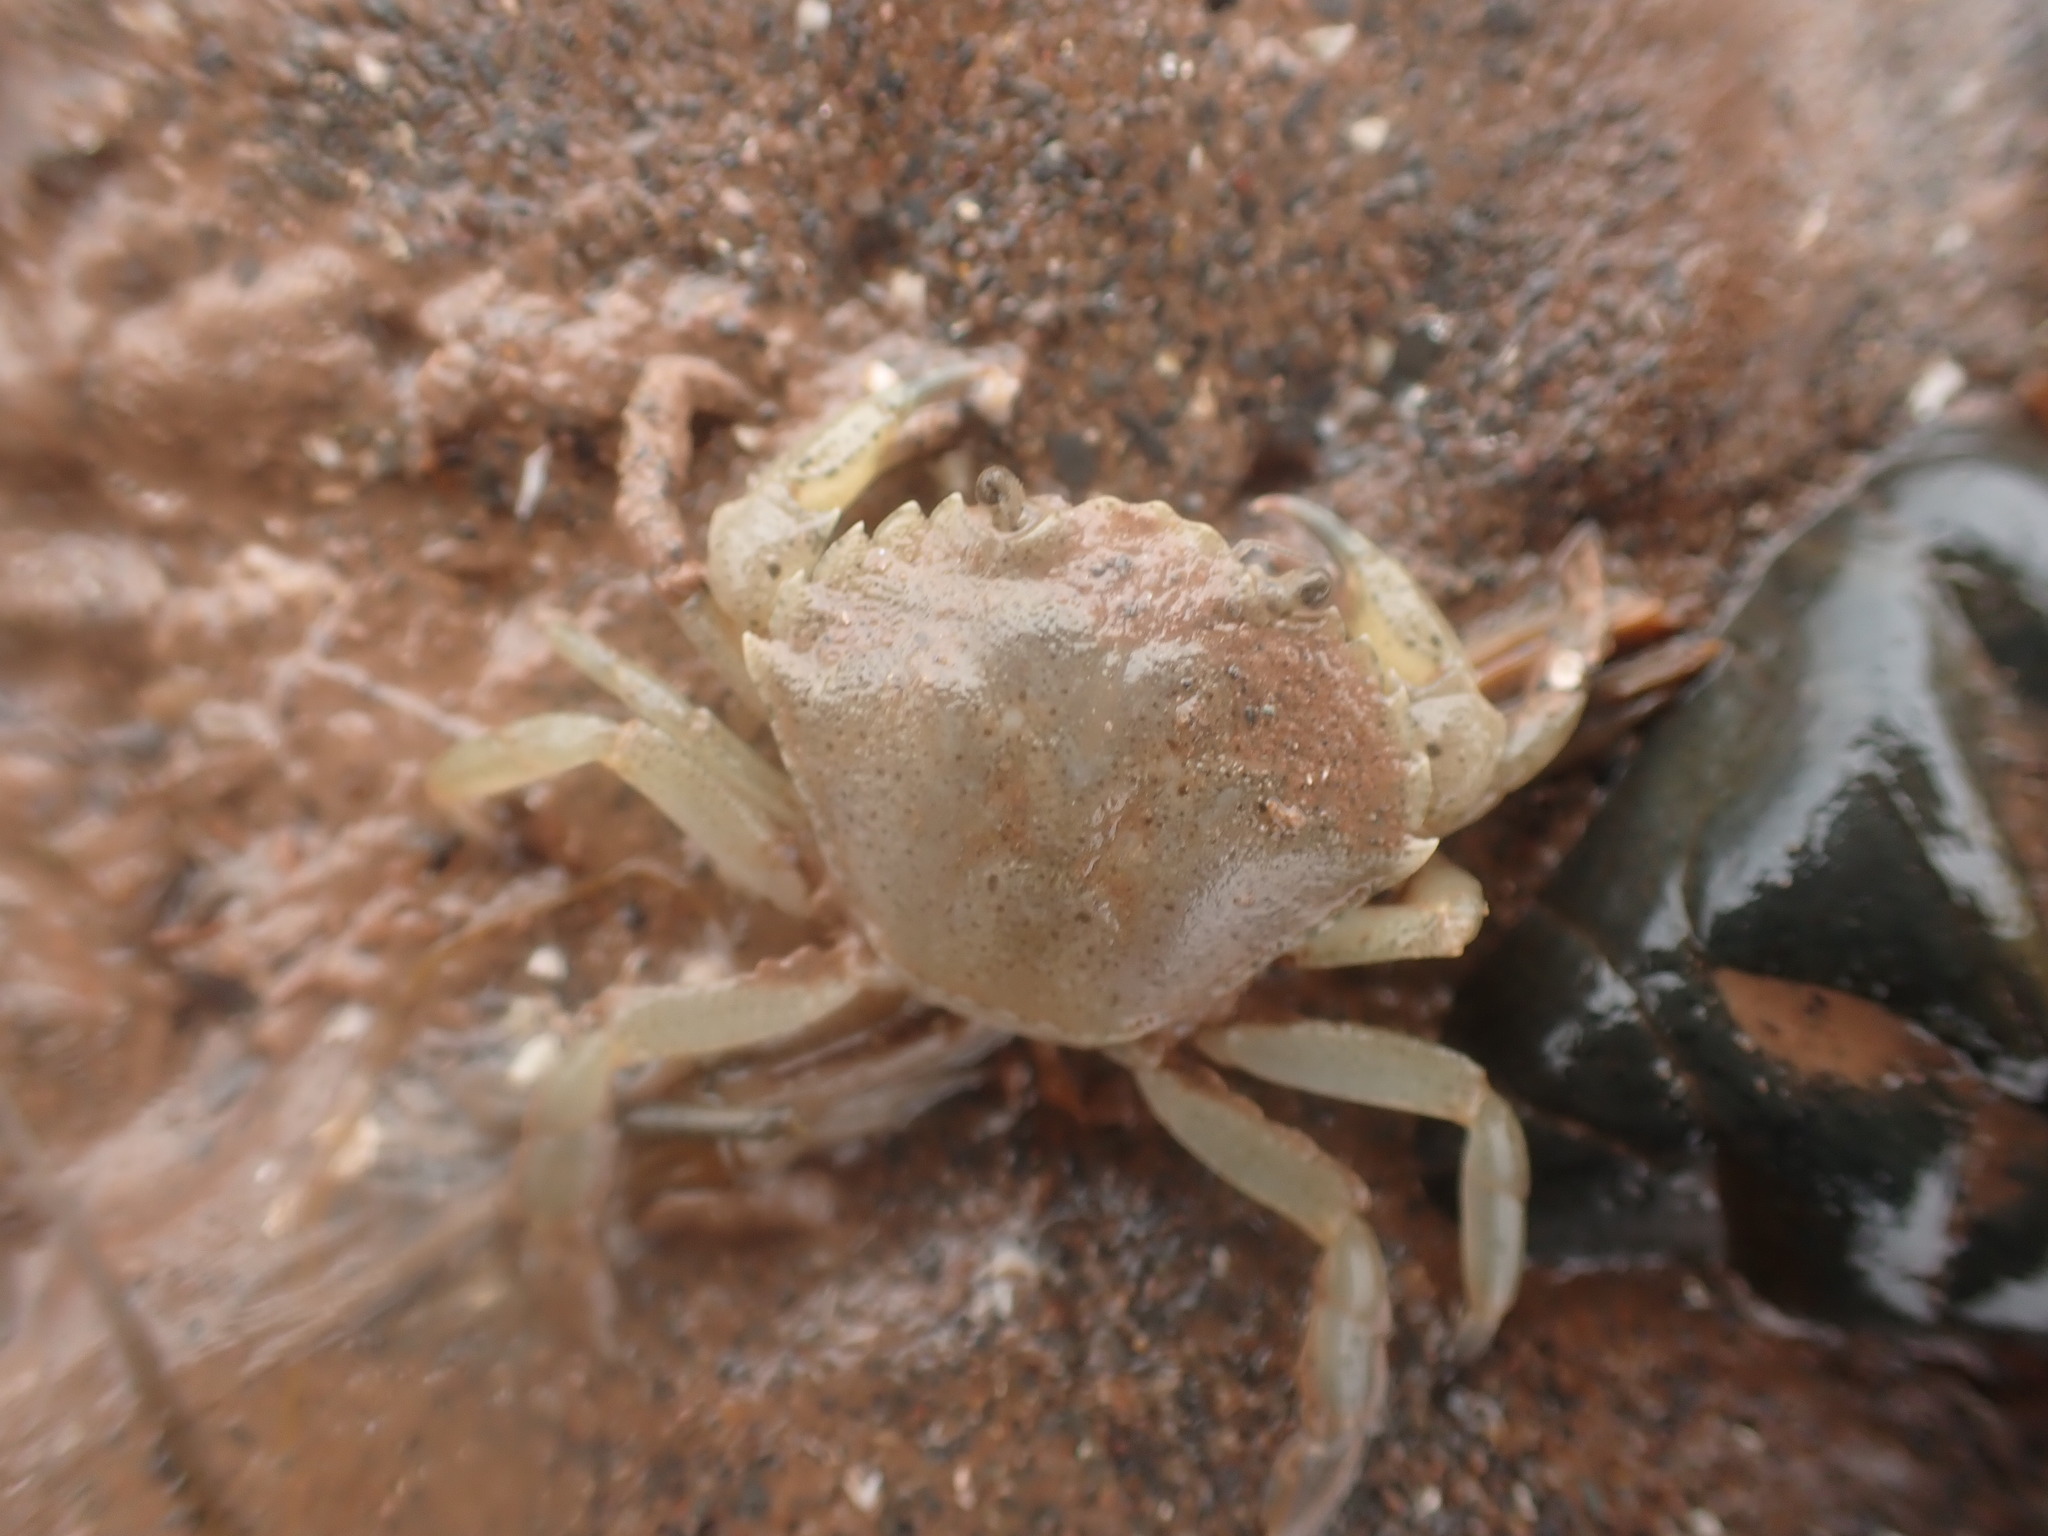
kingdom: Animalia
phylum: Arthropoda
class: Malacostraca
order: Decapoda
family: Carcinidae
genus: Carcinus
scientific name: Carcinus maenas
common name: European green crab
